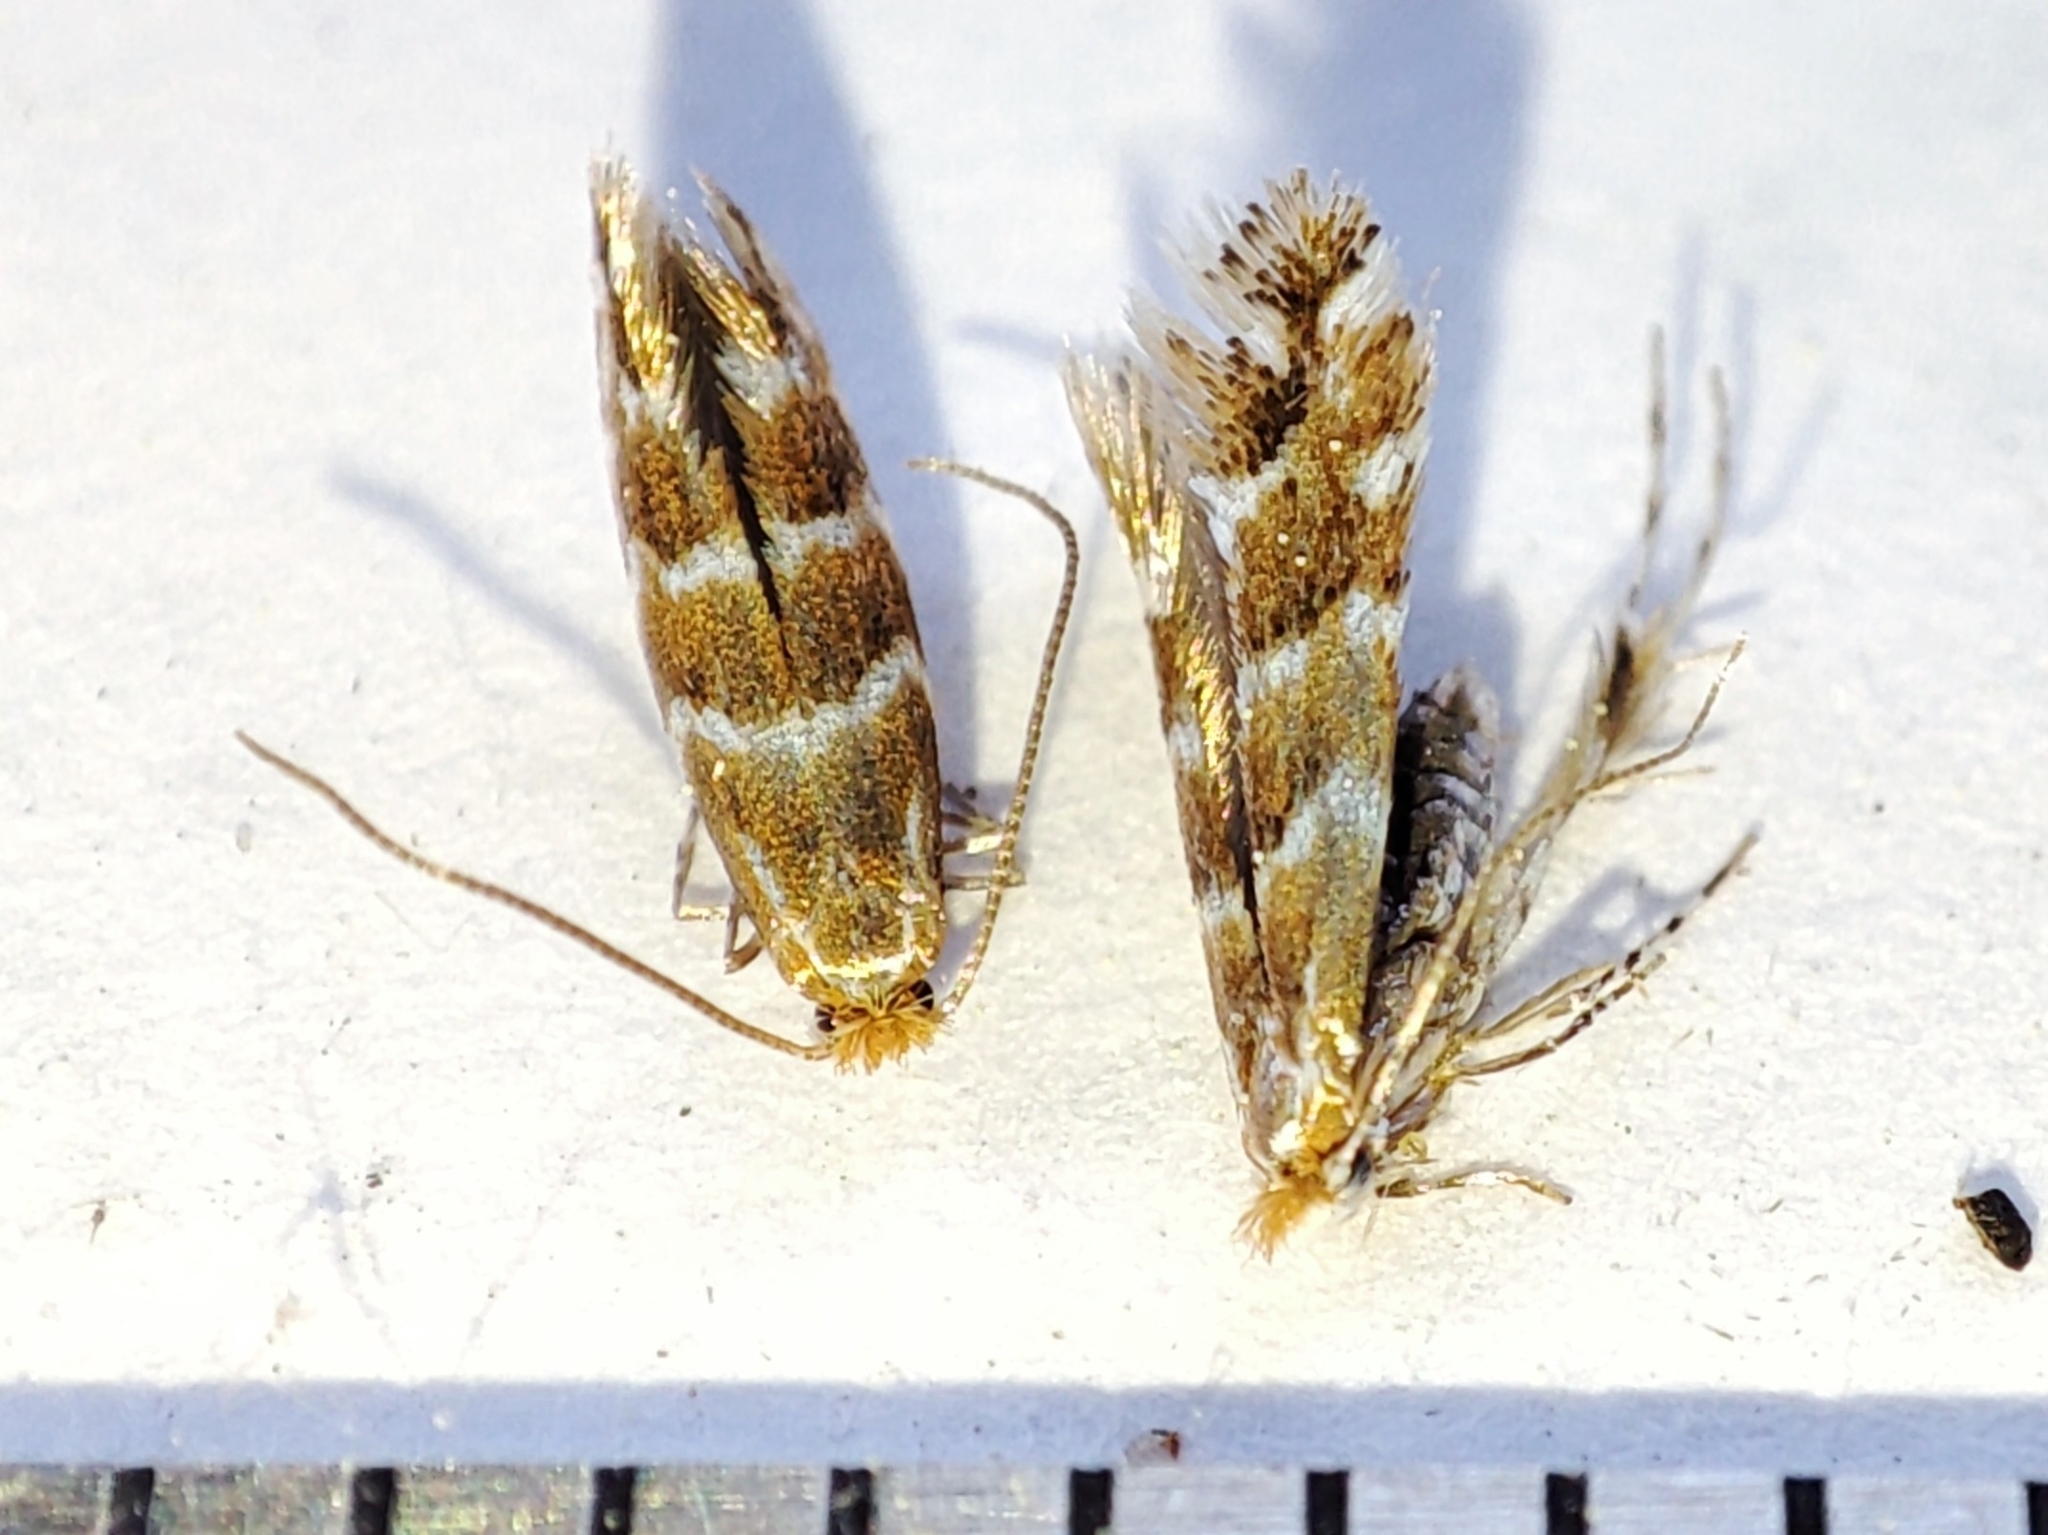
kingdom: Animalia
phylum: Arthropoda
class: Insecta
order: Lepidoptera
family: Gracillariidae
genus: Cameraria
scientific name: Cameraria ohridella
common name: Horse-chestnut leaf-miner
